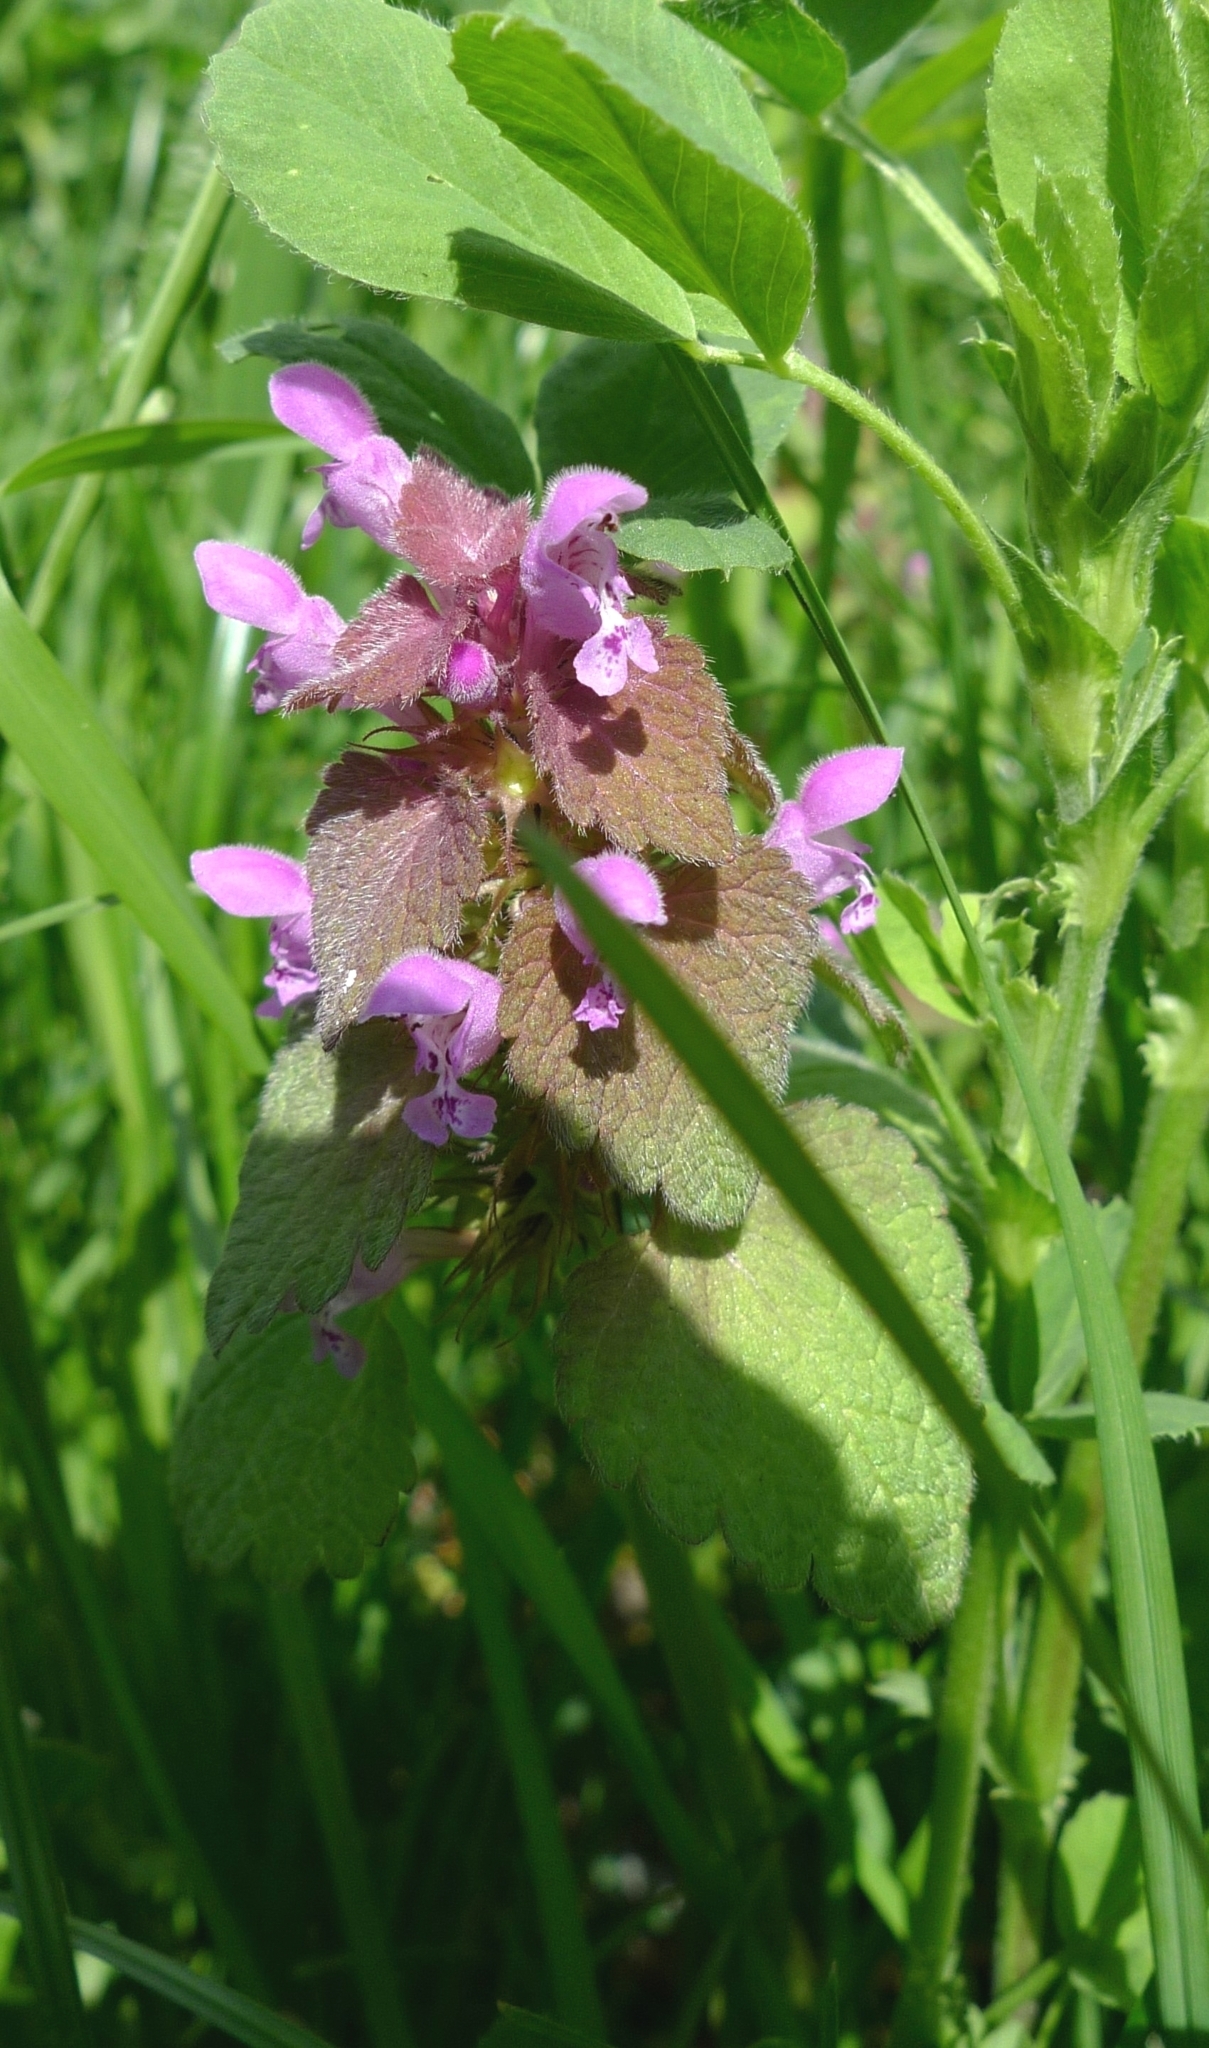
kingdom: Plantae
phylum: Tracheophyta
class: Magnoliopsida
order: Lamiales
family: Lamiaceae
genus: Lamium
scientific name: Lamium purpureum
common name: Red dead-nettle
